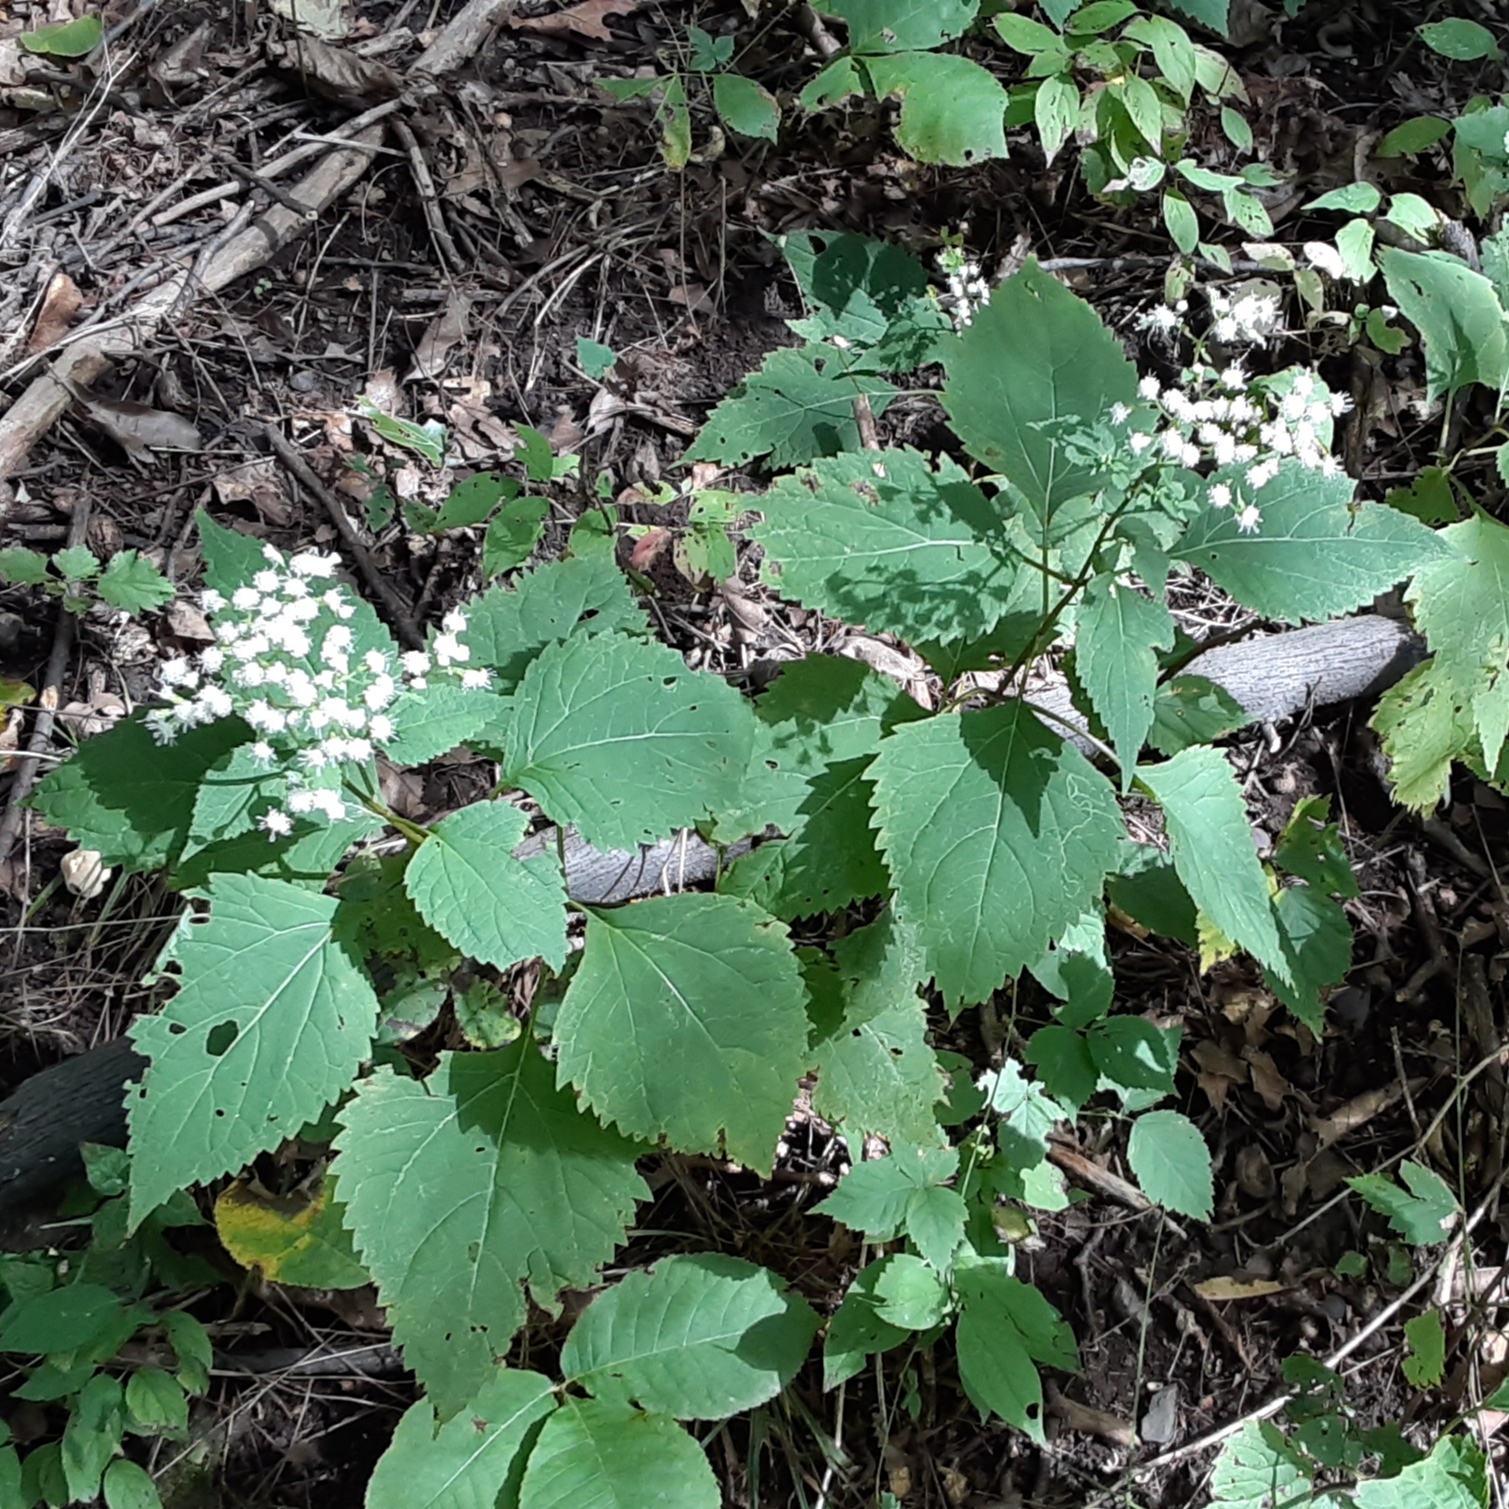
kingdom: Plantae
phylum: Tracheophyta
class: Magnoliopsida
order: Asterales
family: Asteraceae
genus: Ageratina
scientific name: Ageratina altissima
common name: White snakeroot
